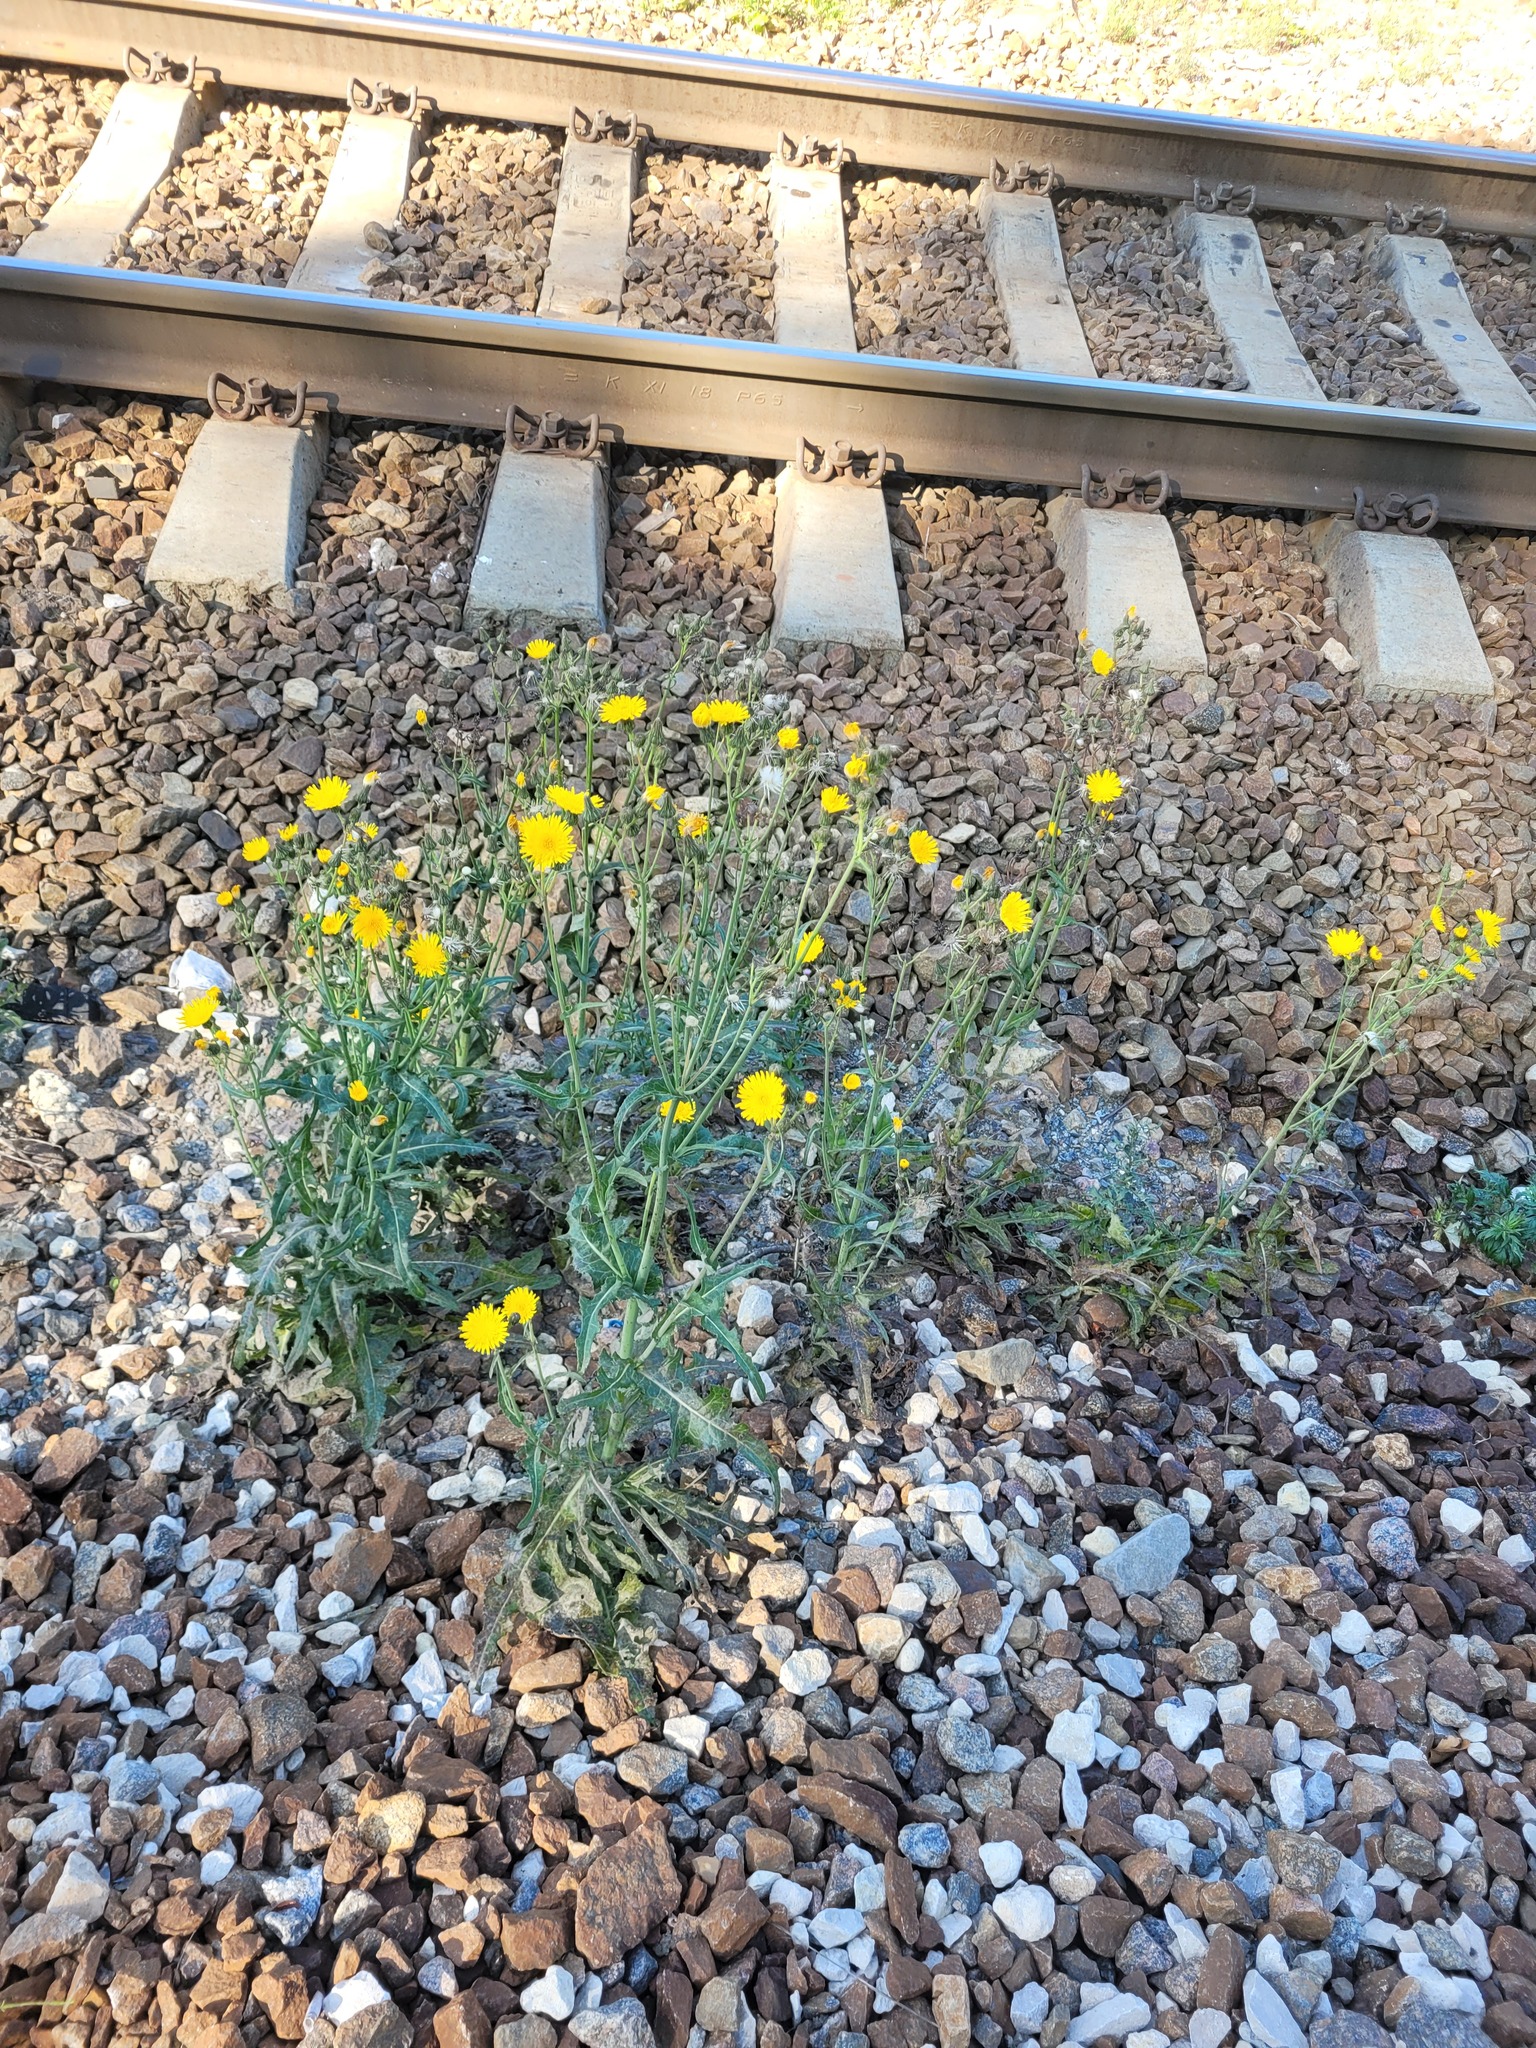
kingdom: Plantae
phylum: Tracheophyta
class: Magnoliopsida
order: Asterales
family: Asteraceae
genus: Sonchus
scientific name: Sonchus arvensis
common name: Perennial sow-thistle
